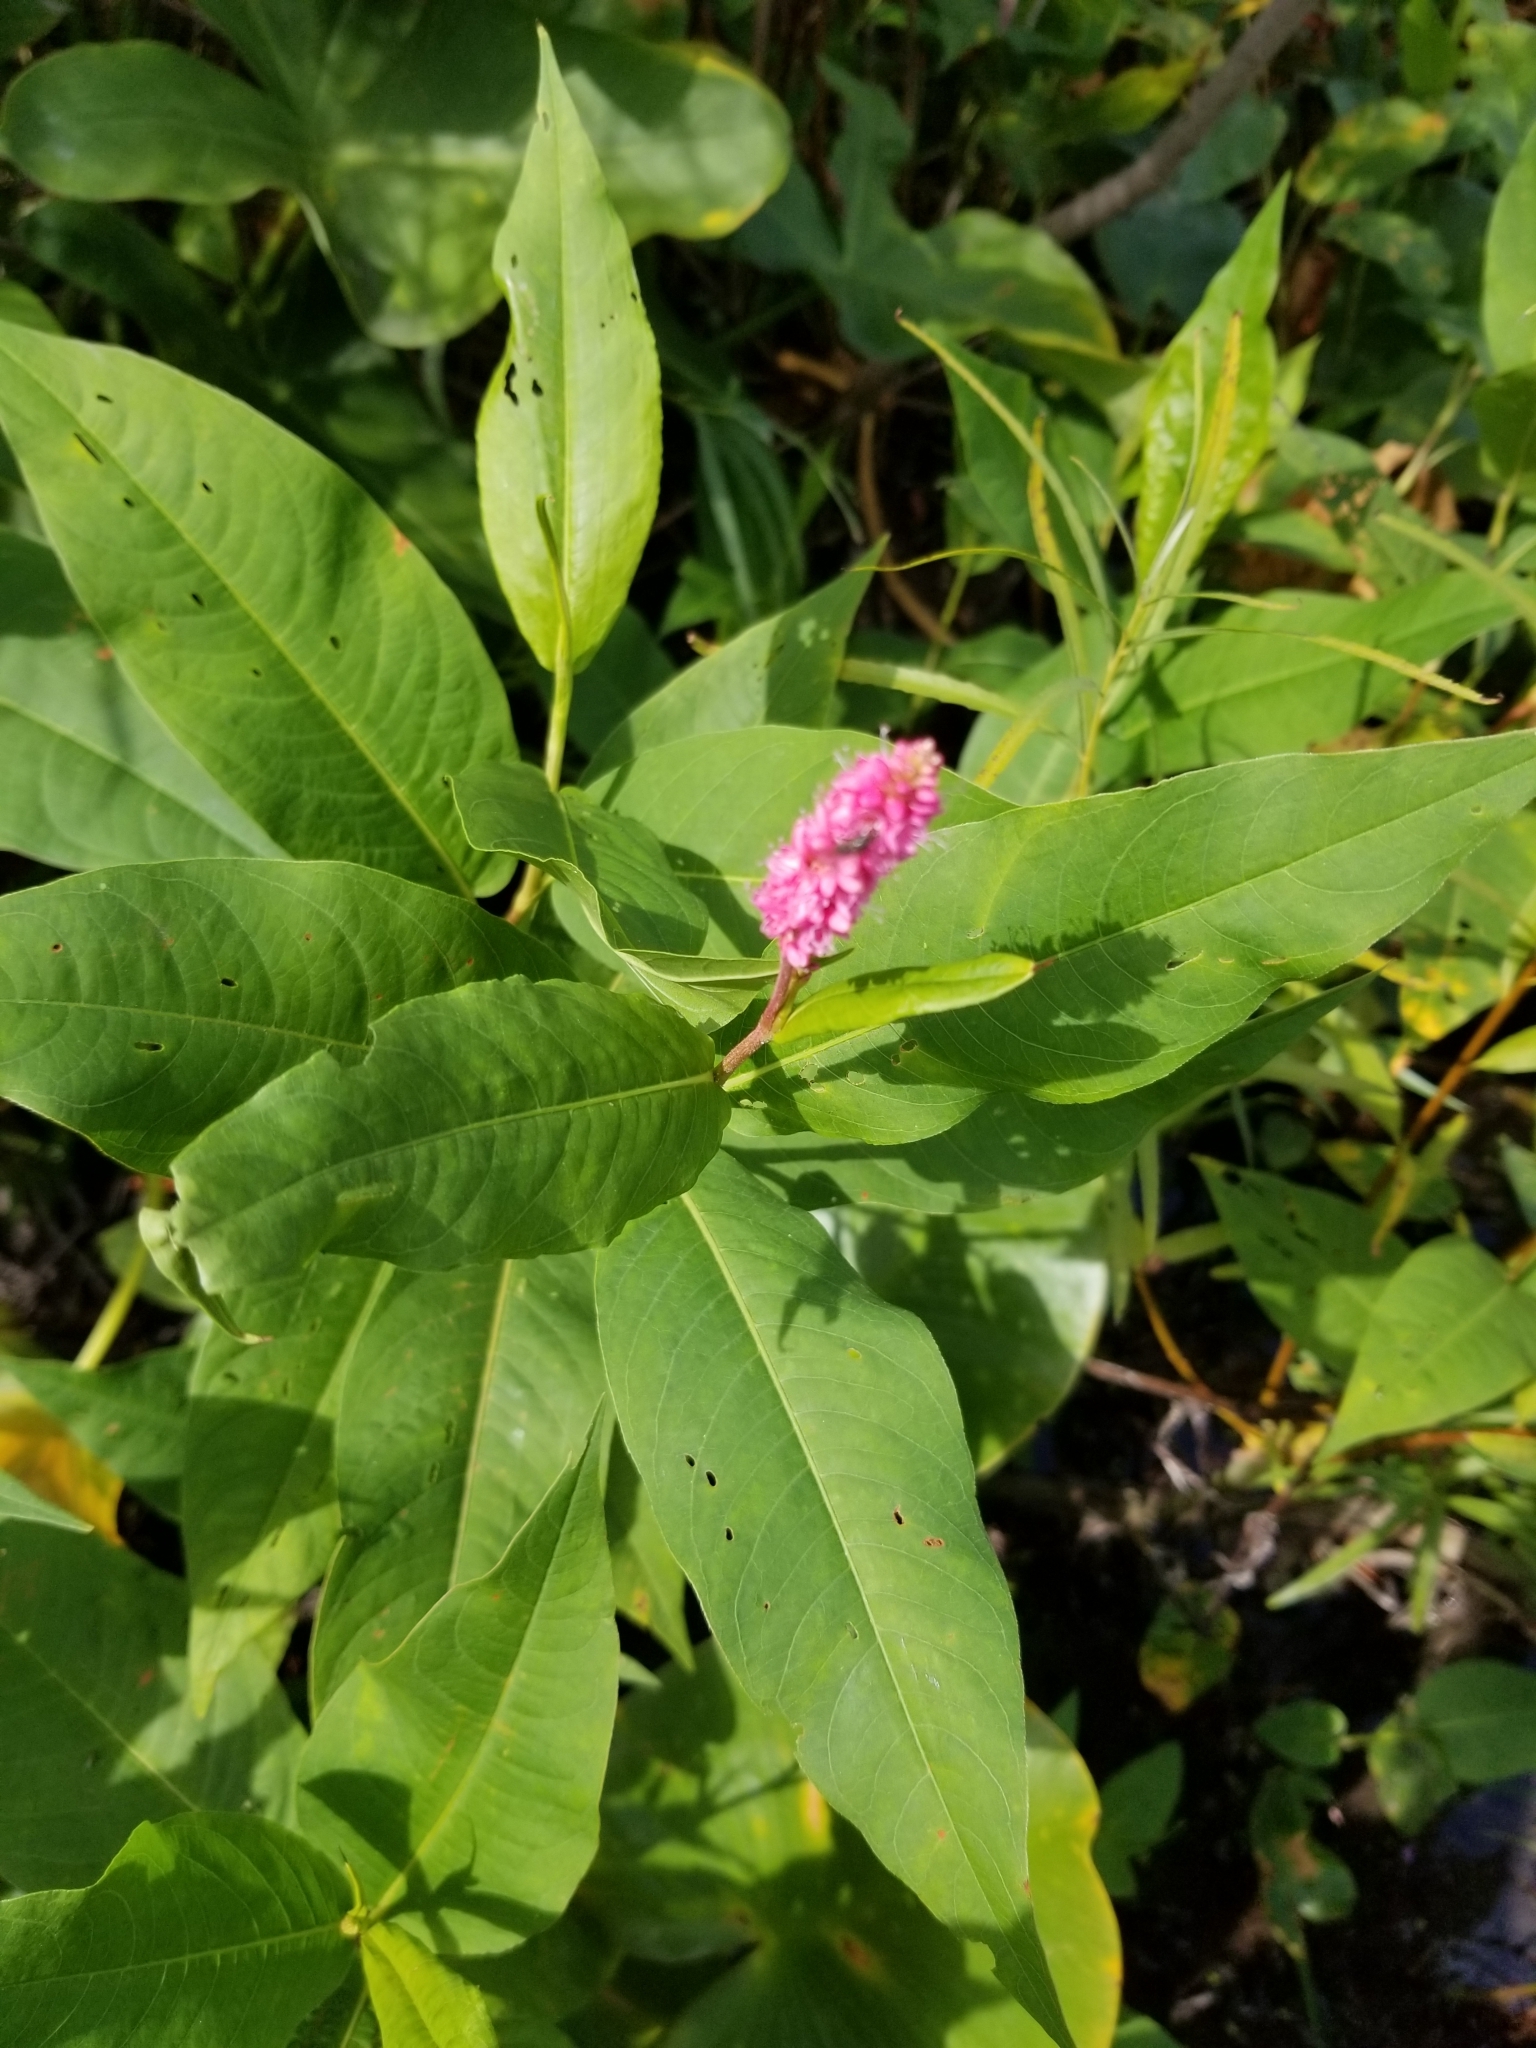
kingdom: Plantae
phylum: Tracheophyta
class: Magnoliopsida
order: Caryophyllales
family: Polygonaceae
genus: Persicaria
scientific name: Persicaria amphibia
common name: Amphibious bistort
